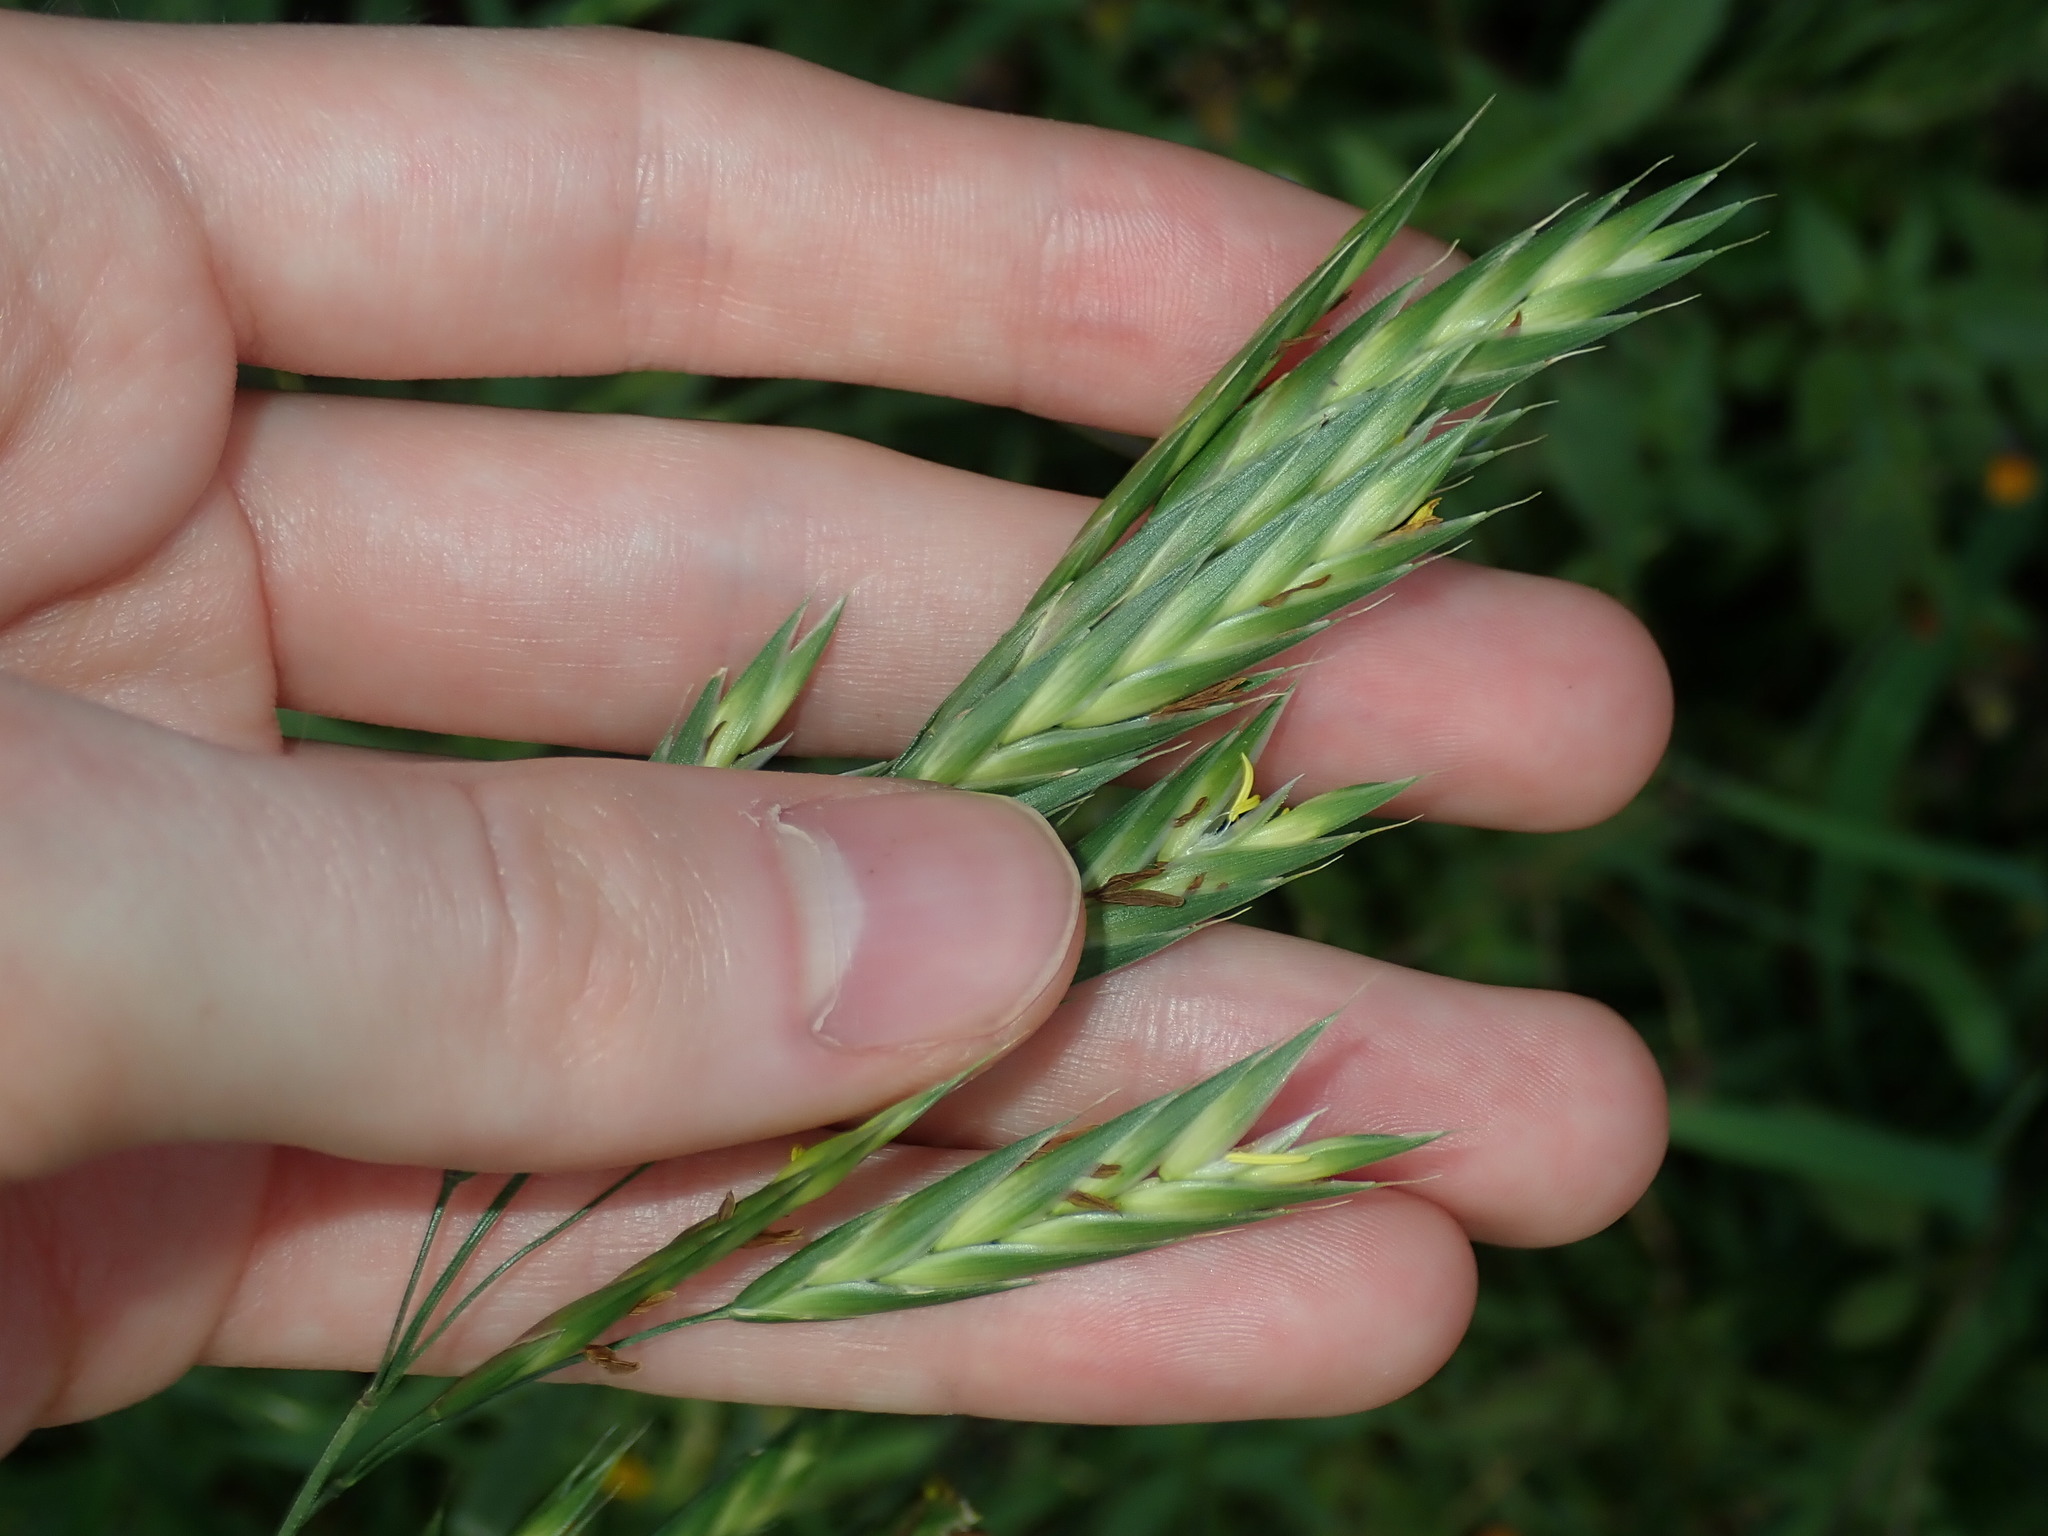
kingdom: Plantae
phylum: Tracheophyta
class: Liliopsida
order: Poales
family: Poaceae
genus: Bromus
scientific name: Bromus catharticus
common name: Rescuegrass
